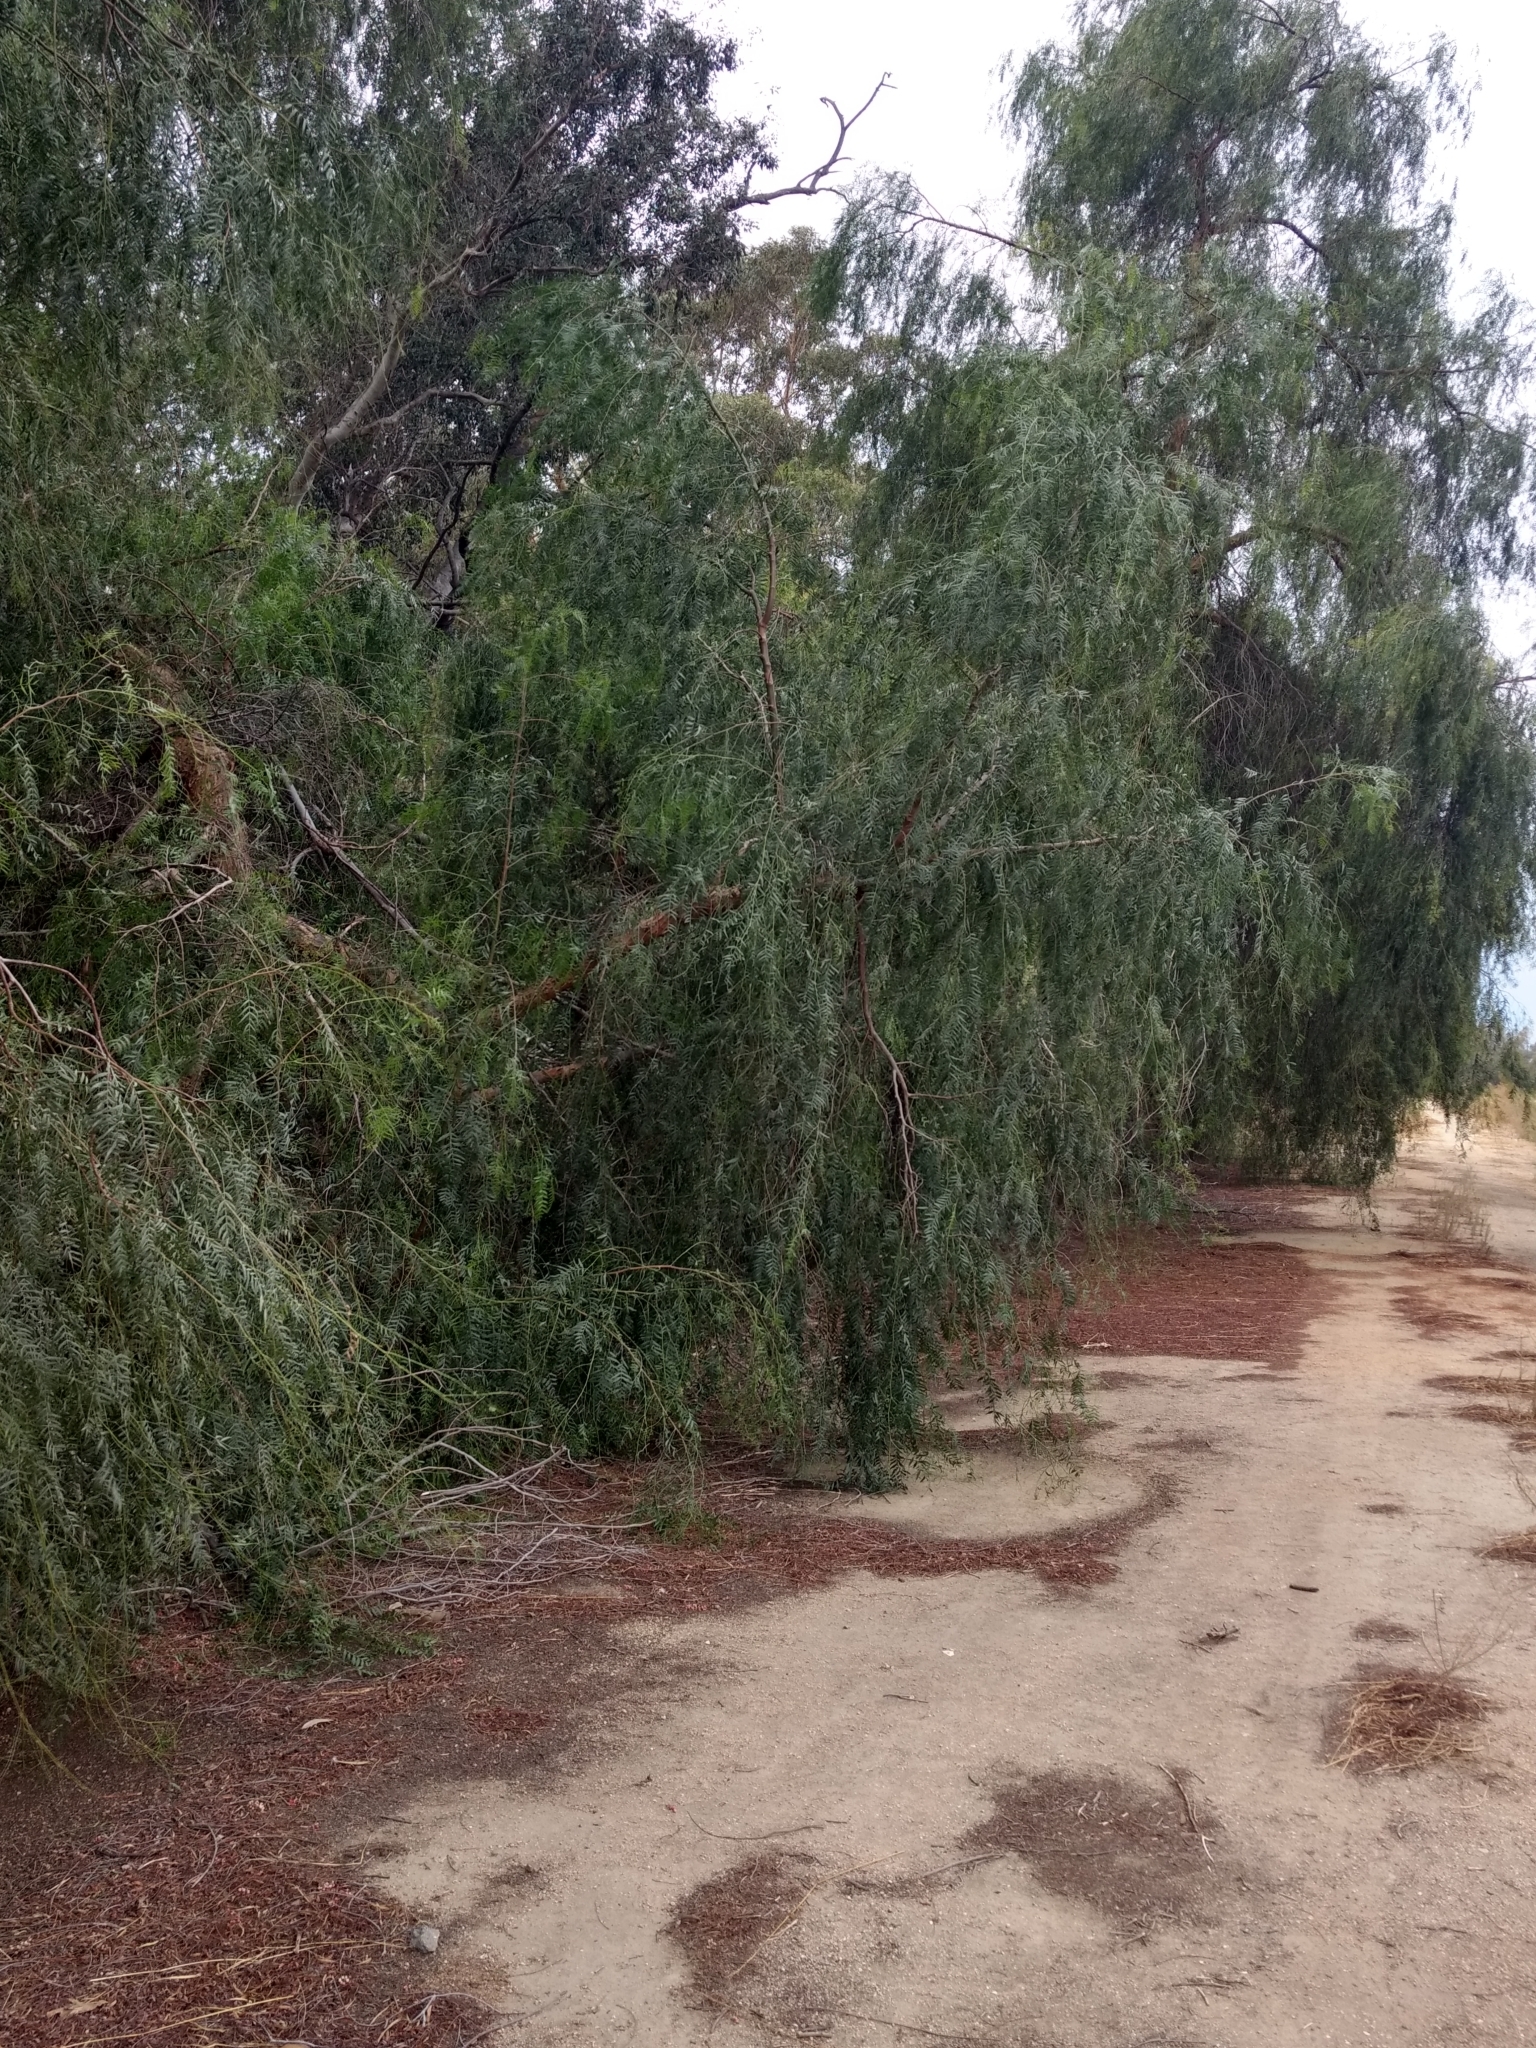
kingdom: Plantae
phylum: Tracheophyta
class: Magnoliopsida
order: Sapindales
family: Anacardiaceae
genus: Schinus
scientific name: Schinus molle
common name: Peruvian peppertree
